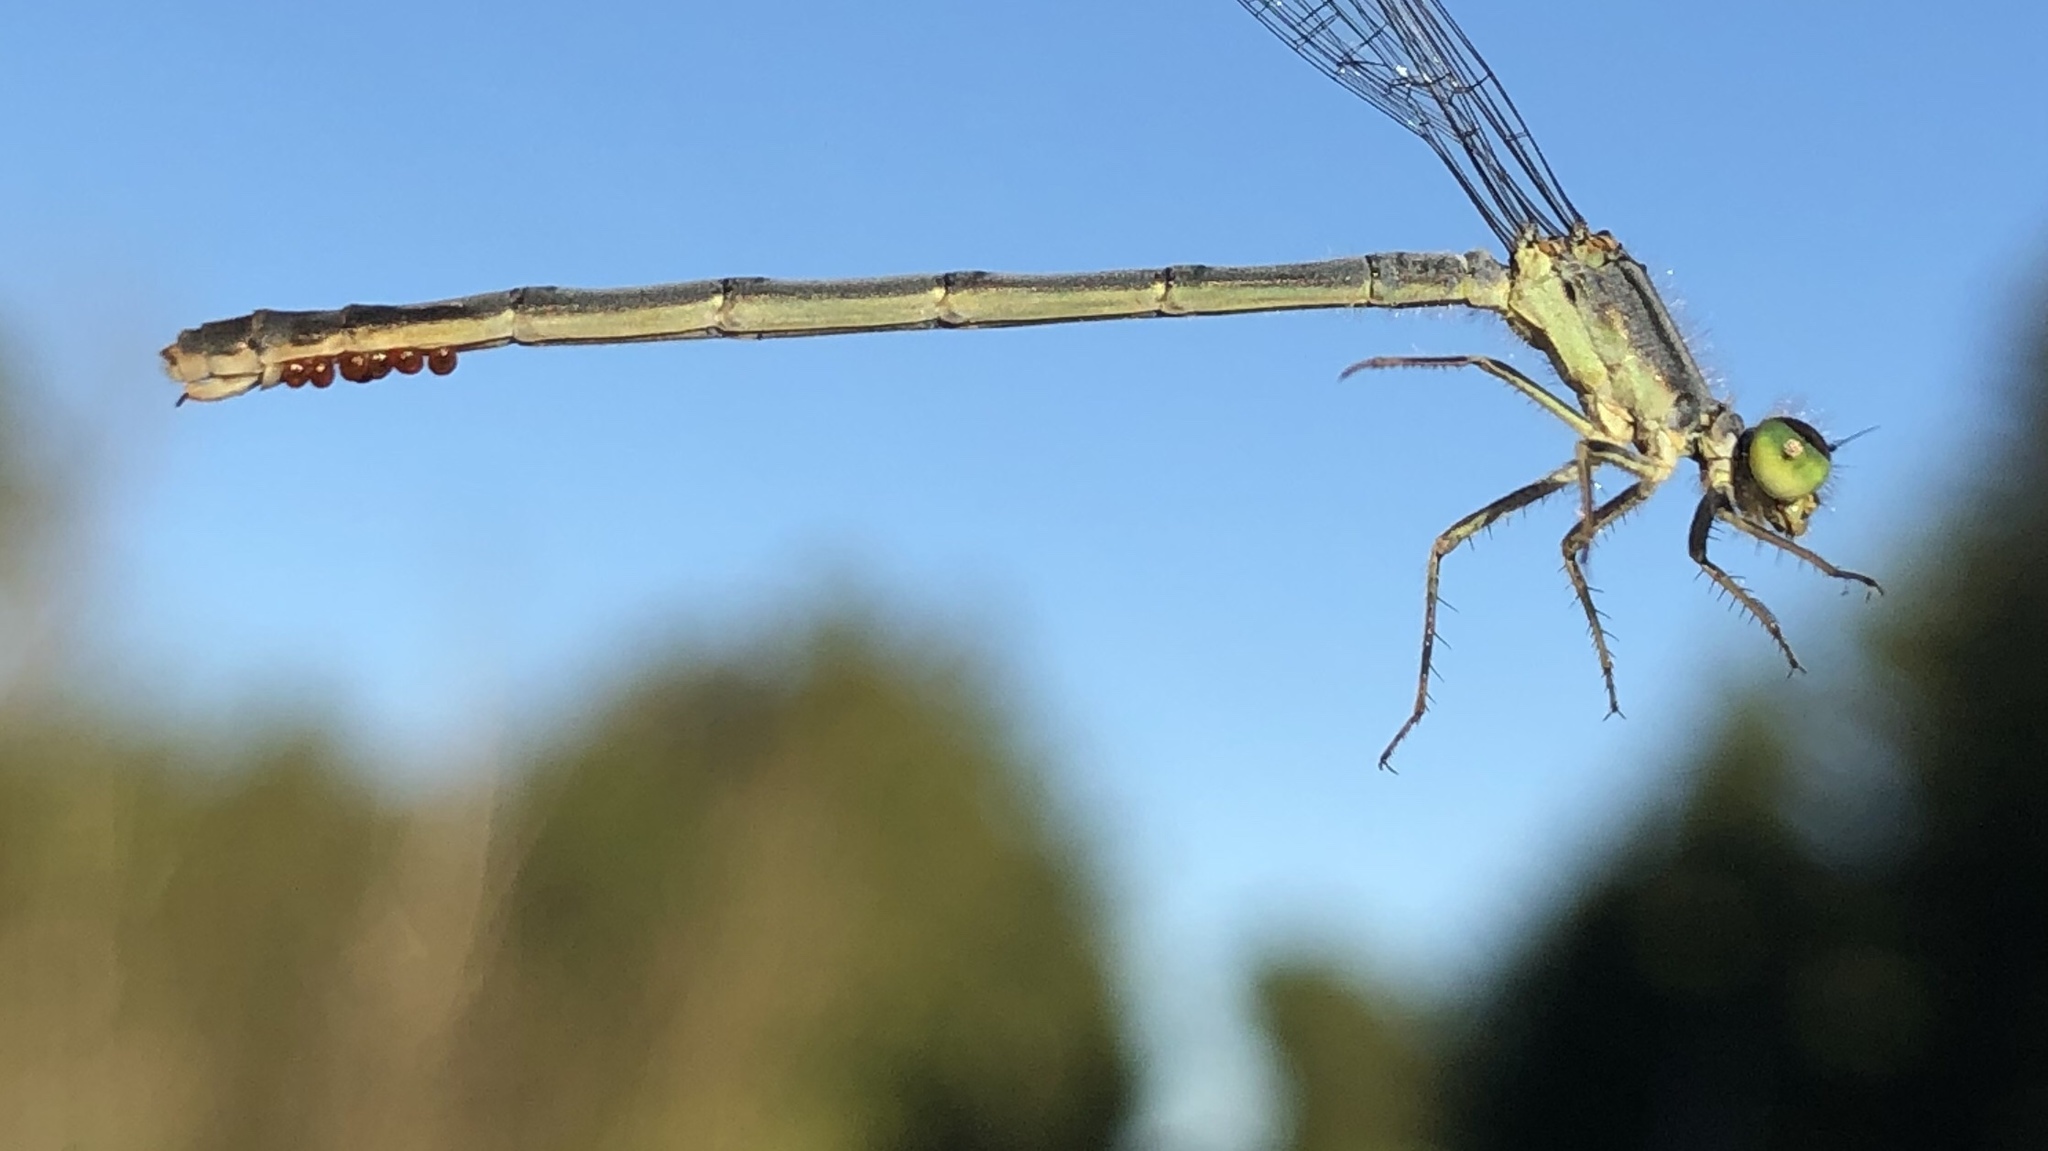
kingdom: Animalia
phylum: Arthropoda
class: Insecta
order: Odonata
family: Coenagrionidae
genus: Ischnura
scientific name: Ischnura verticalis
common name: Eastern forktail
